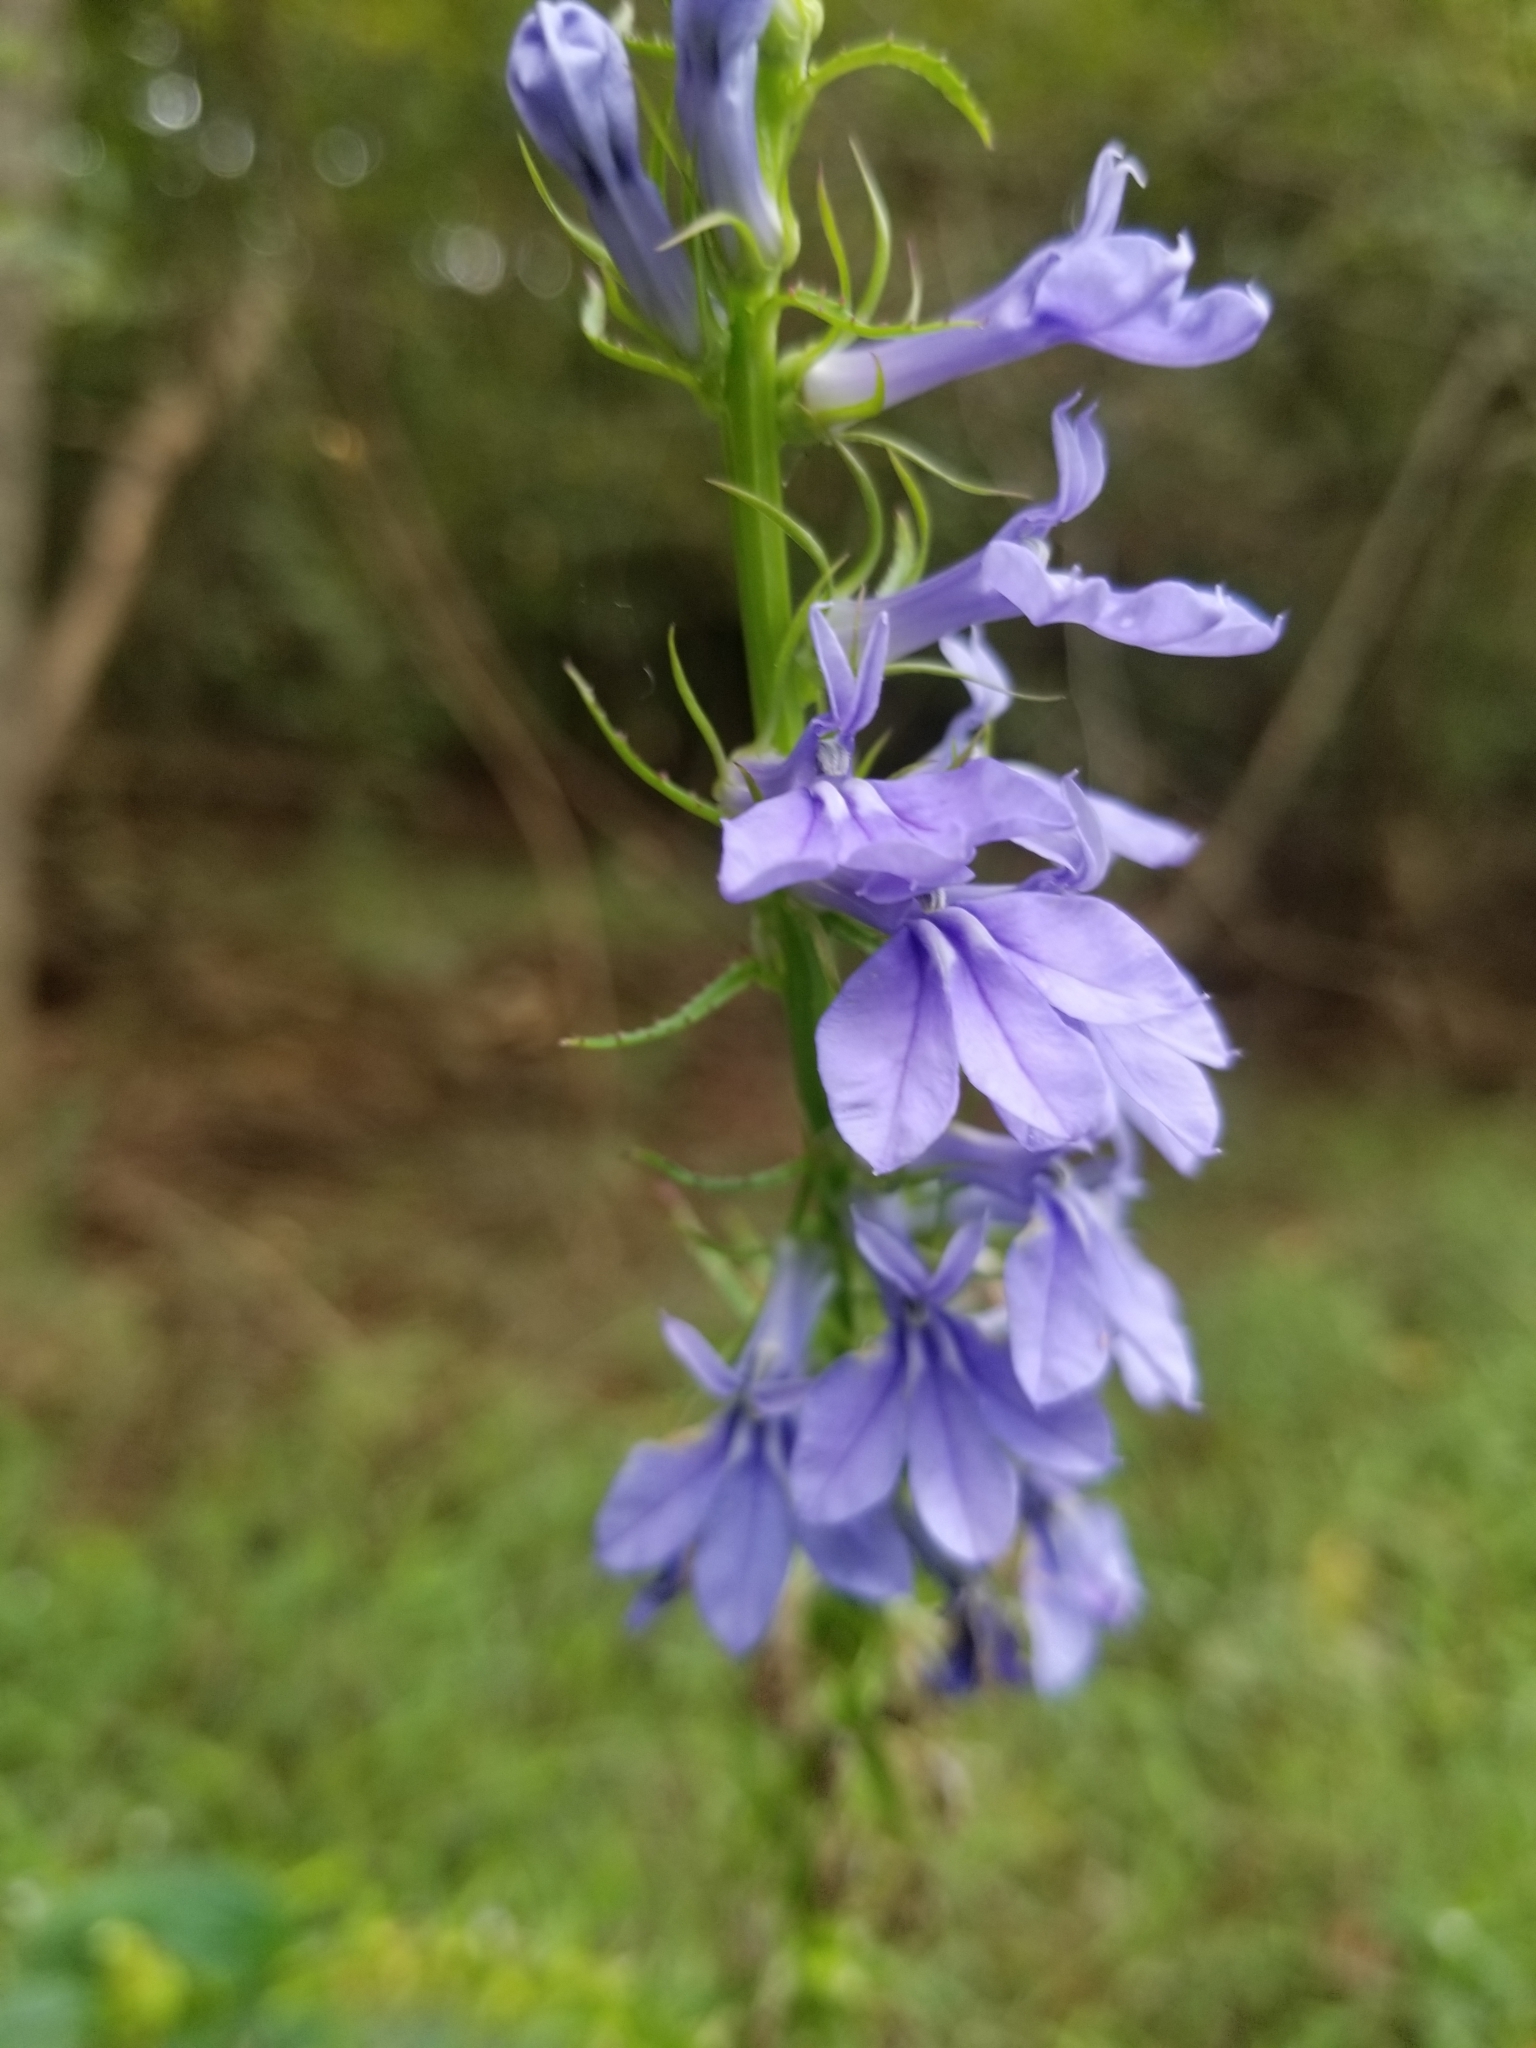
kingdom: Plantae
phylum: Tracheophyta
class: Magnoliopsida
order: Asterales
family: Campanulaceae
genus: Lobelia
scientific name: Lobelia amoena
